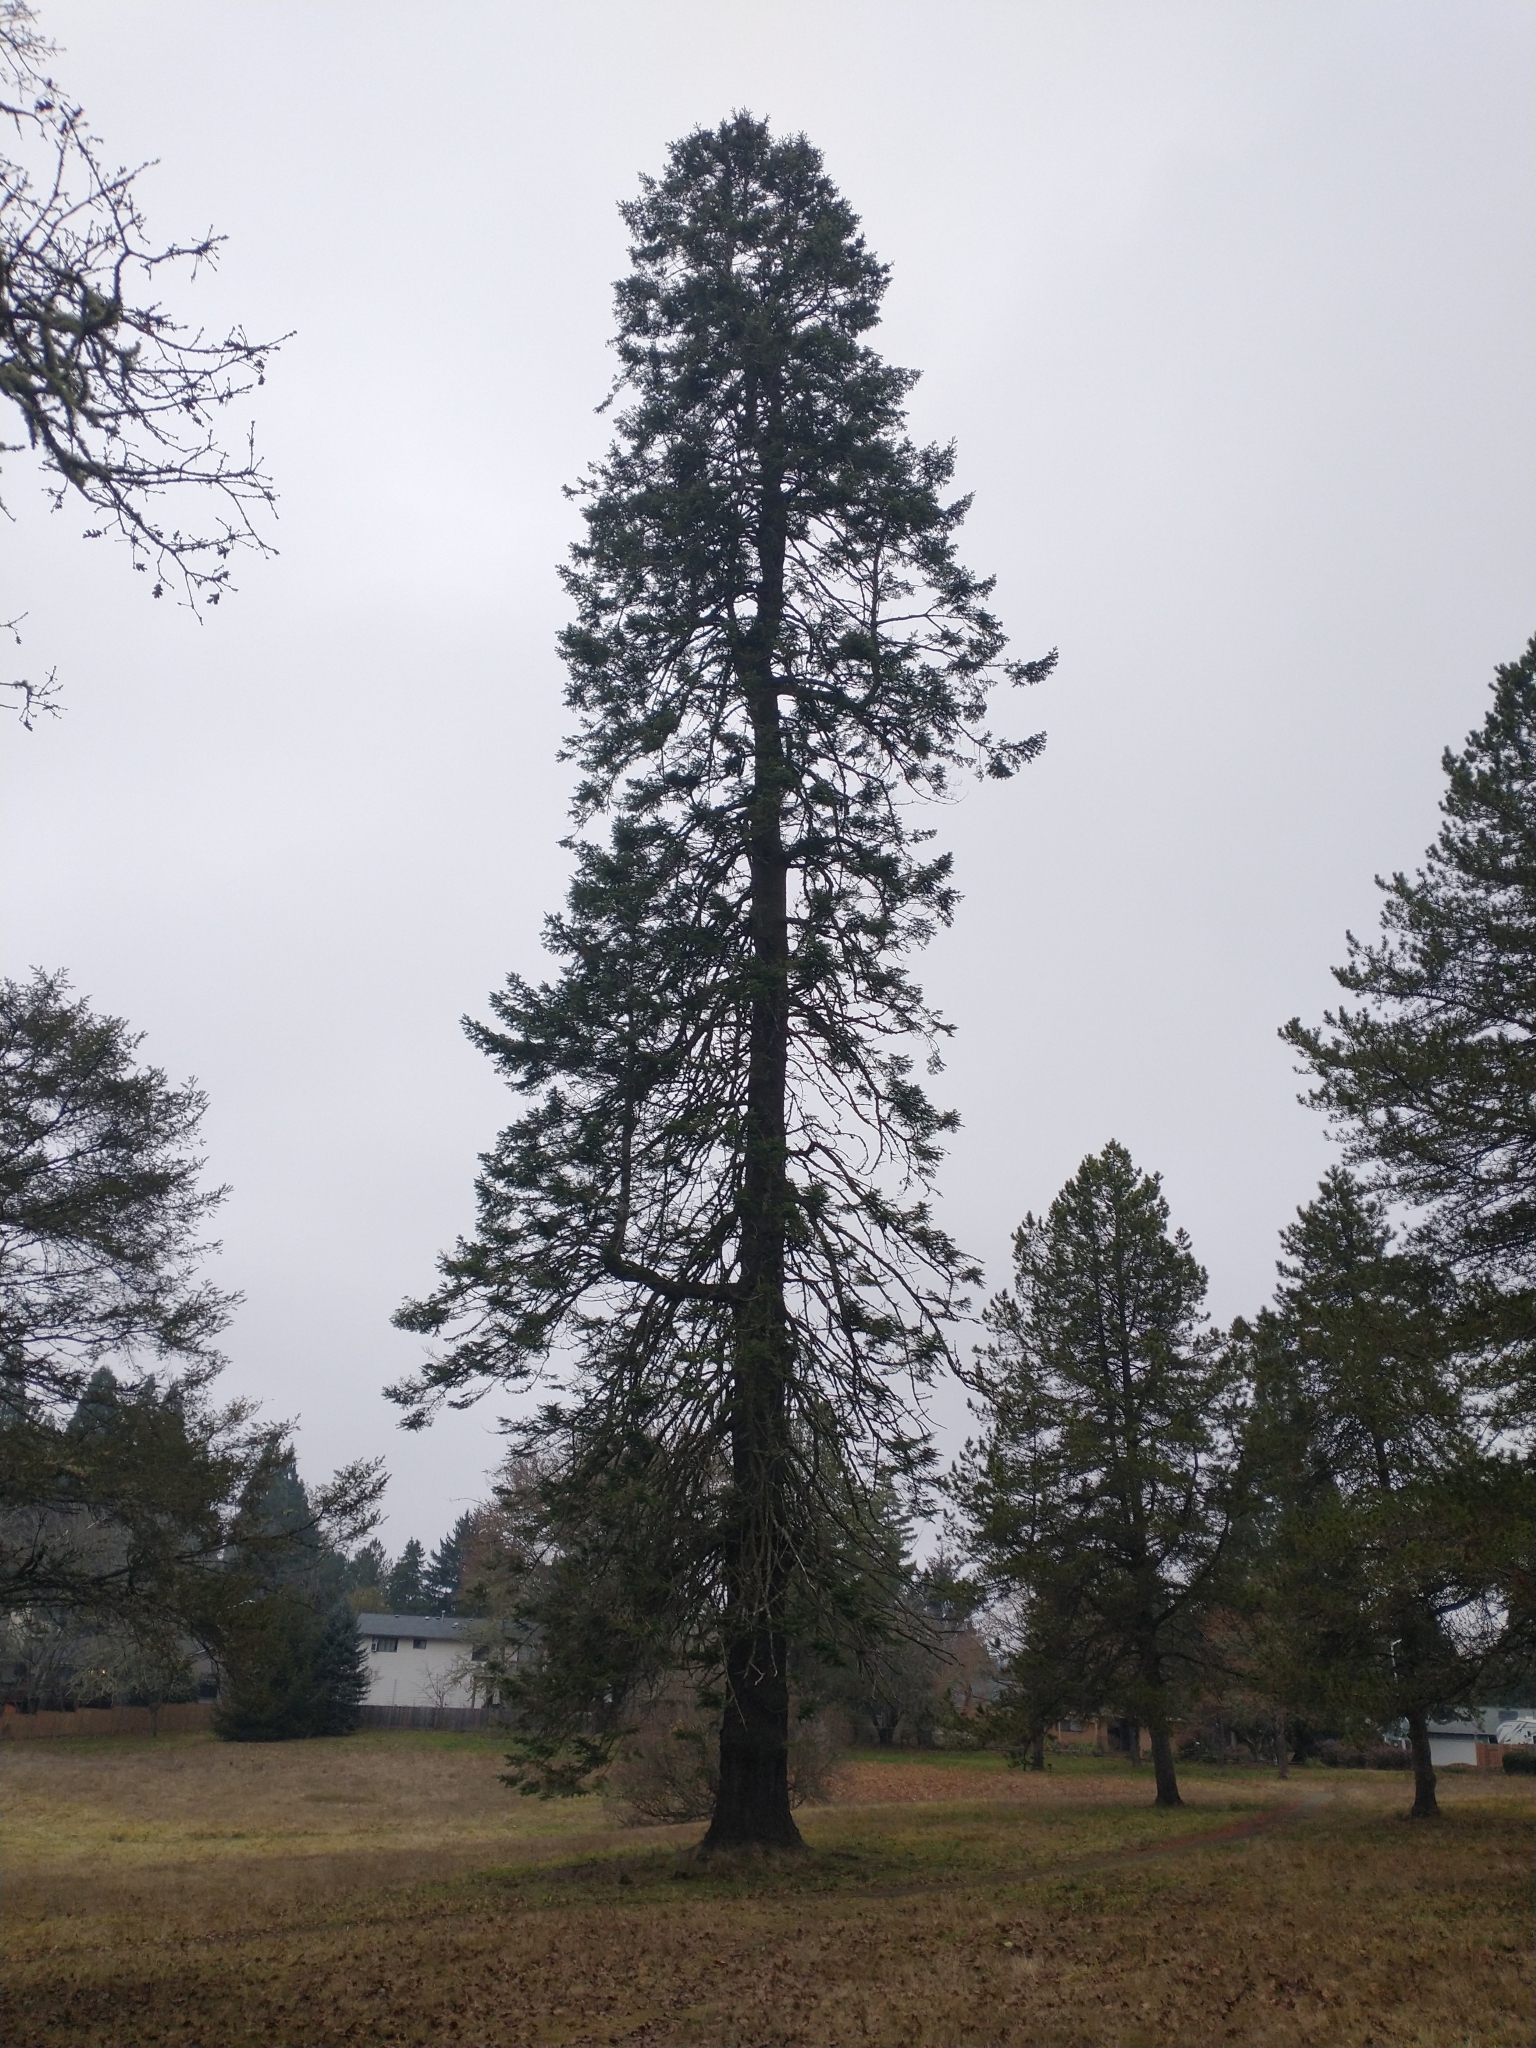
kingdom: Plantae
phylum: Tracheophyta
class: Pinopsida
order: Pinales
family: Pinaceae
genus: Abies
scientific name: Abies grandis
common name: Giant fir
